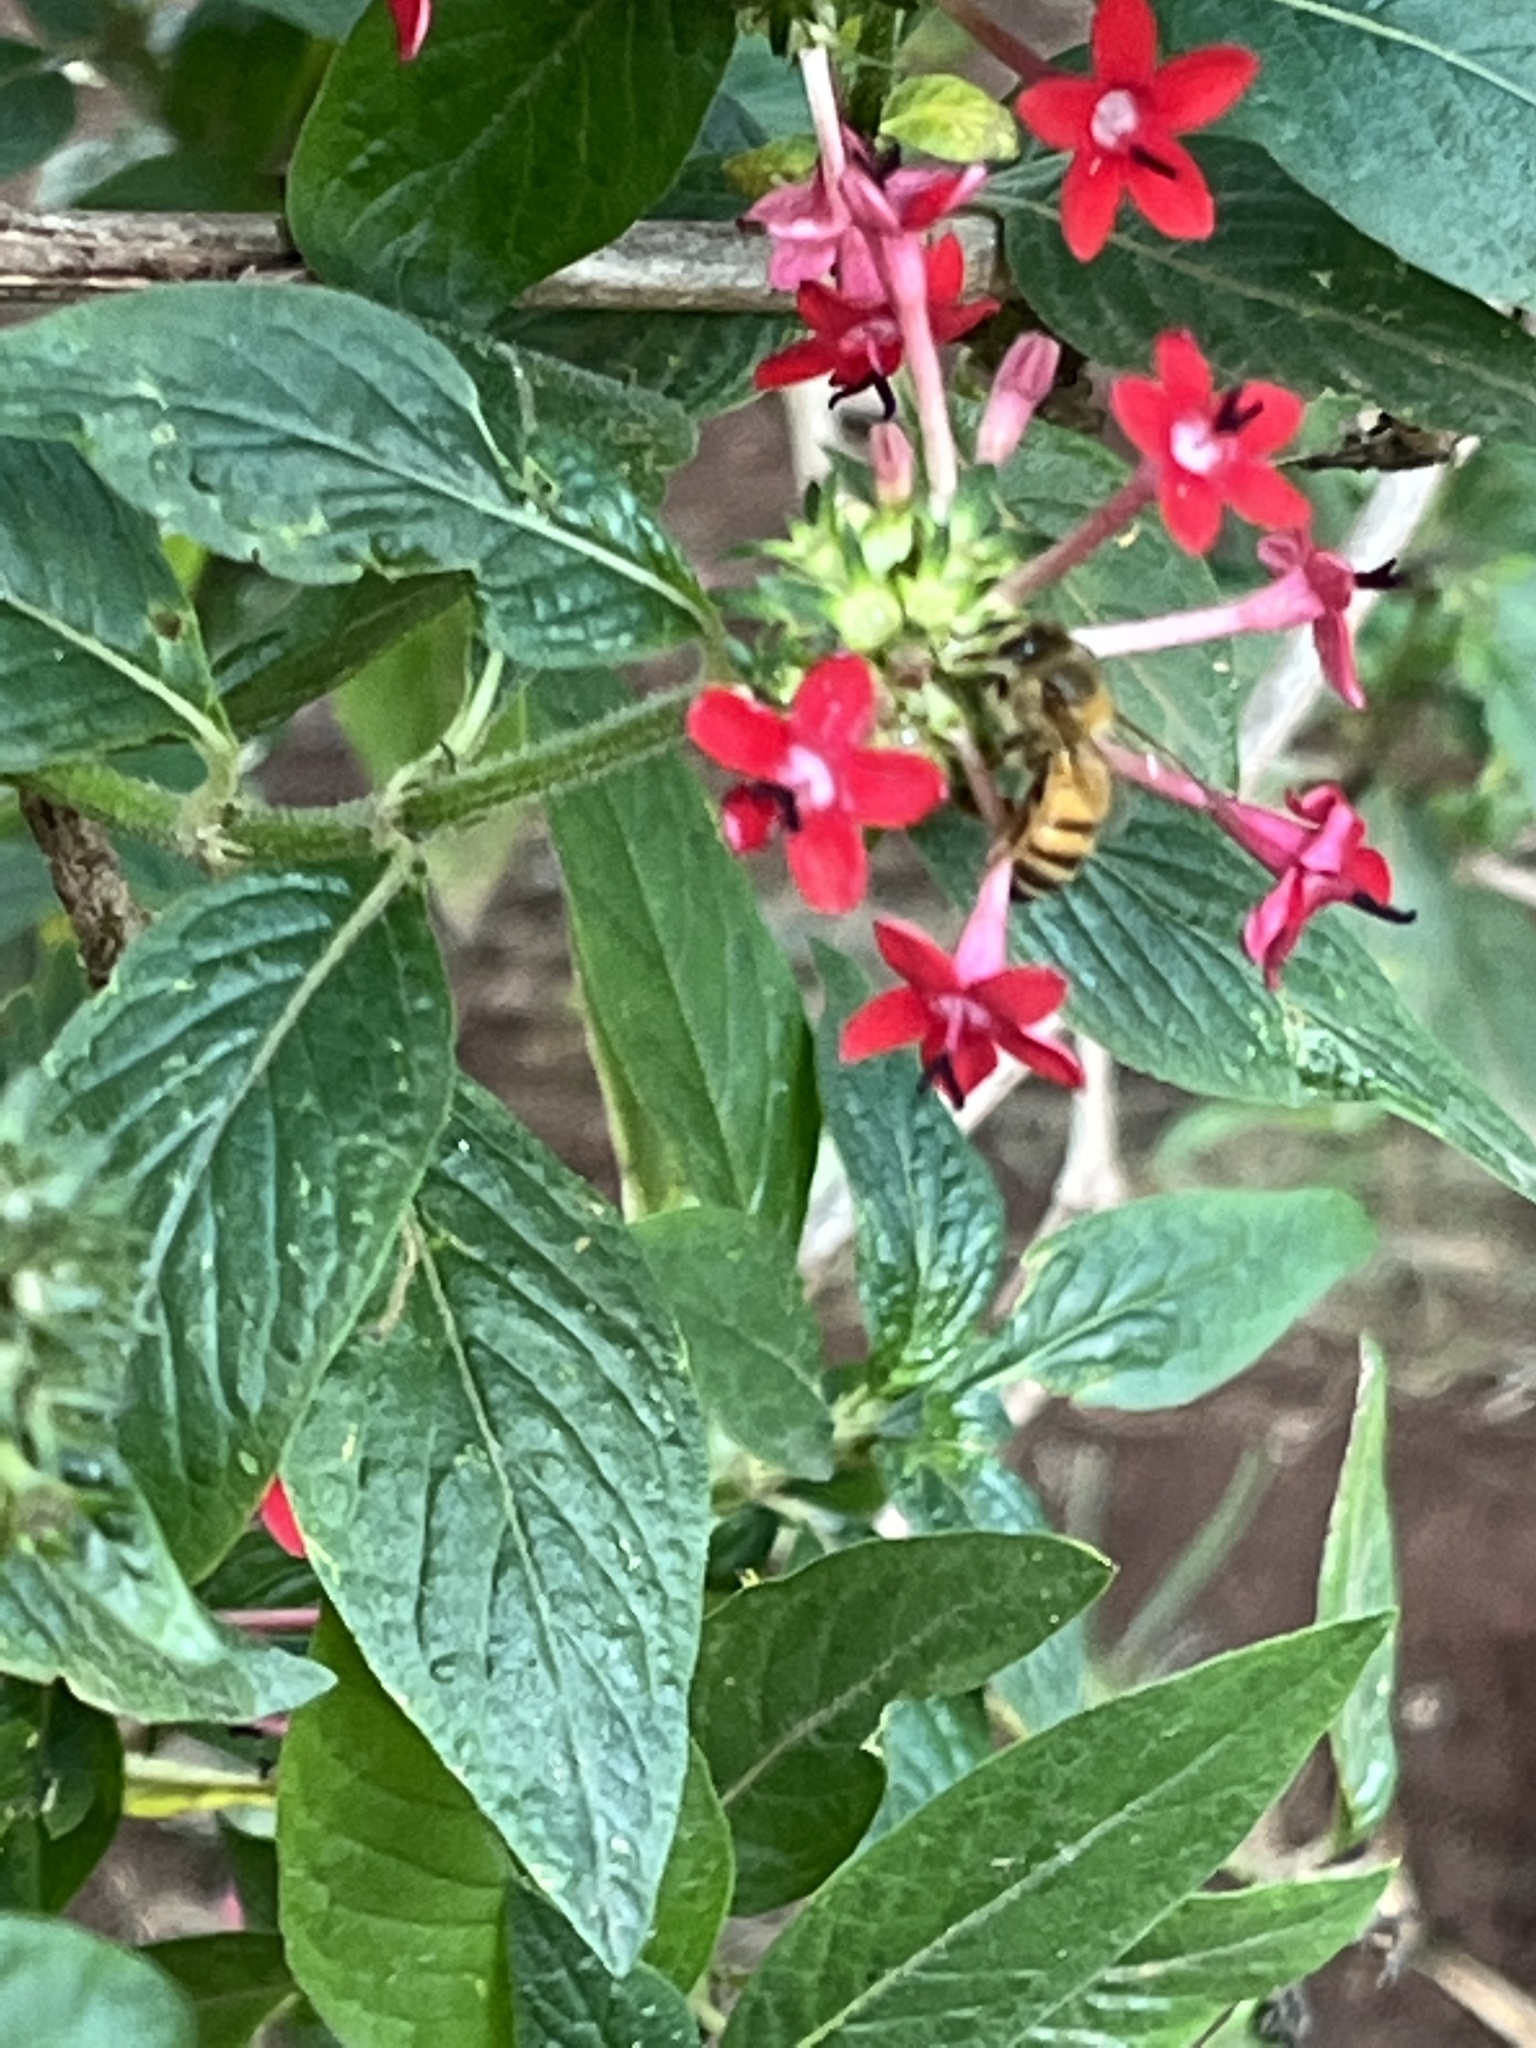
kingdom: Animalia
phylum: Arthropoda
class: Insecta
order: Hymenoptera
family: Apidae
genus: Apis
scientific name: Apis mellifera
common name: Honey bee
